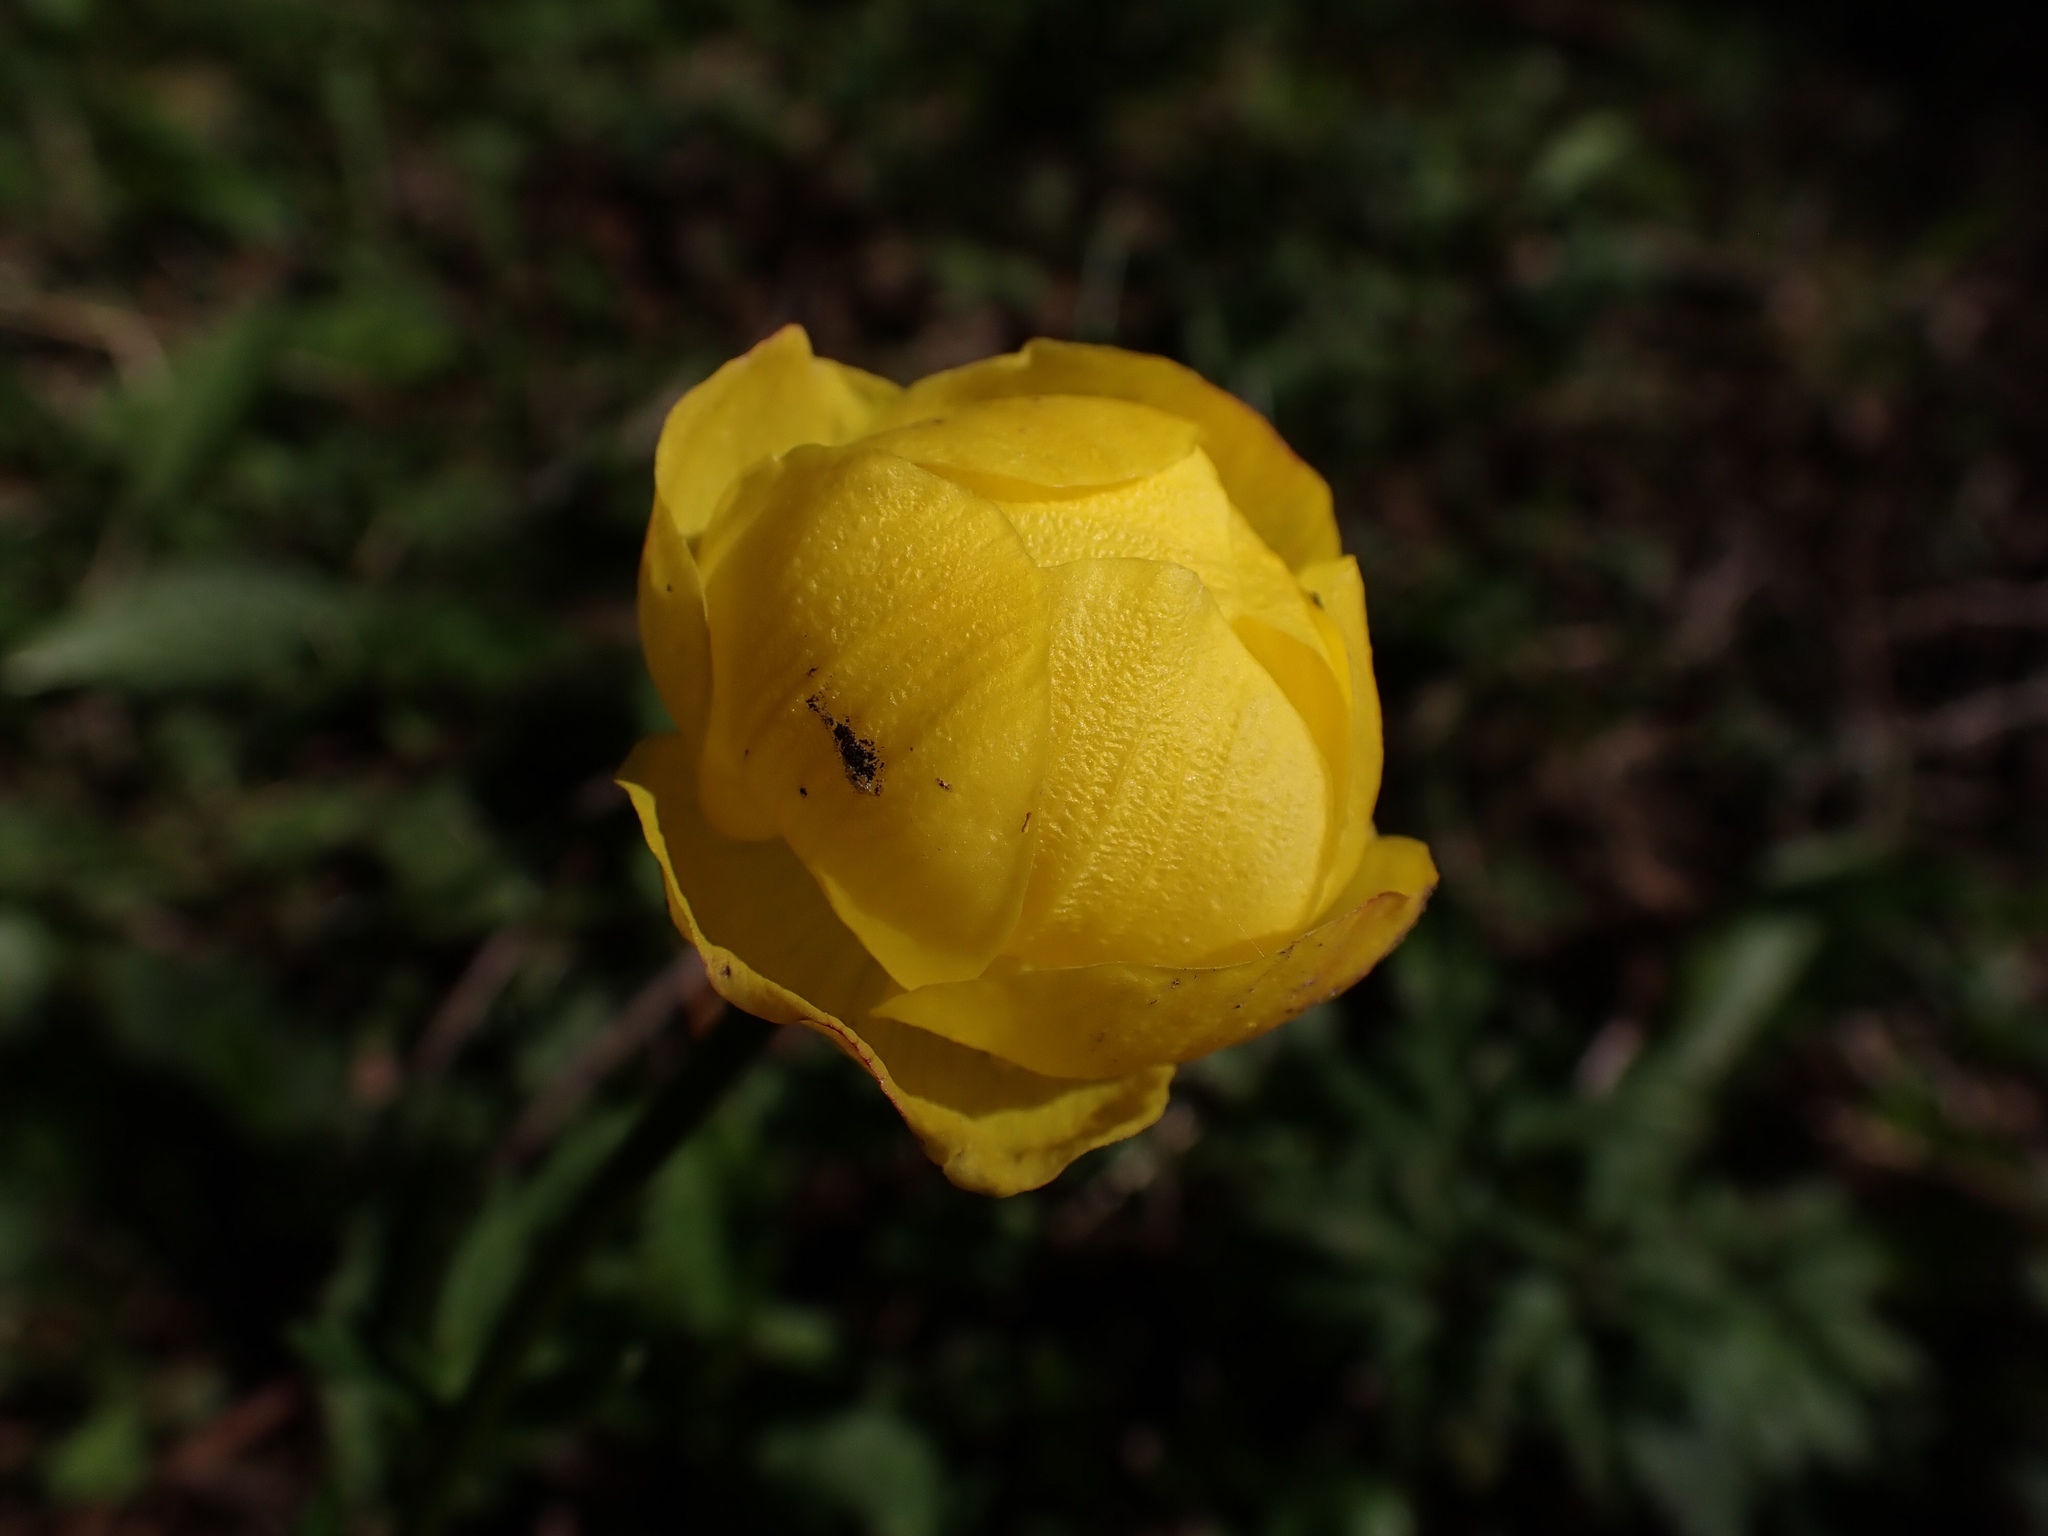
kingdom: Plantae
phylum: Tracheophyta
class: Magnoliopsida
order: Ranunculales
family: Ranunculaceae
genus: Trollius
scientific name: Trollius europaeus
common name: European globeflower
